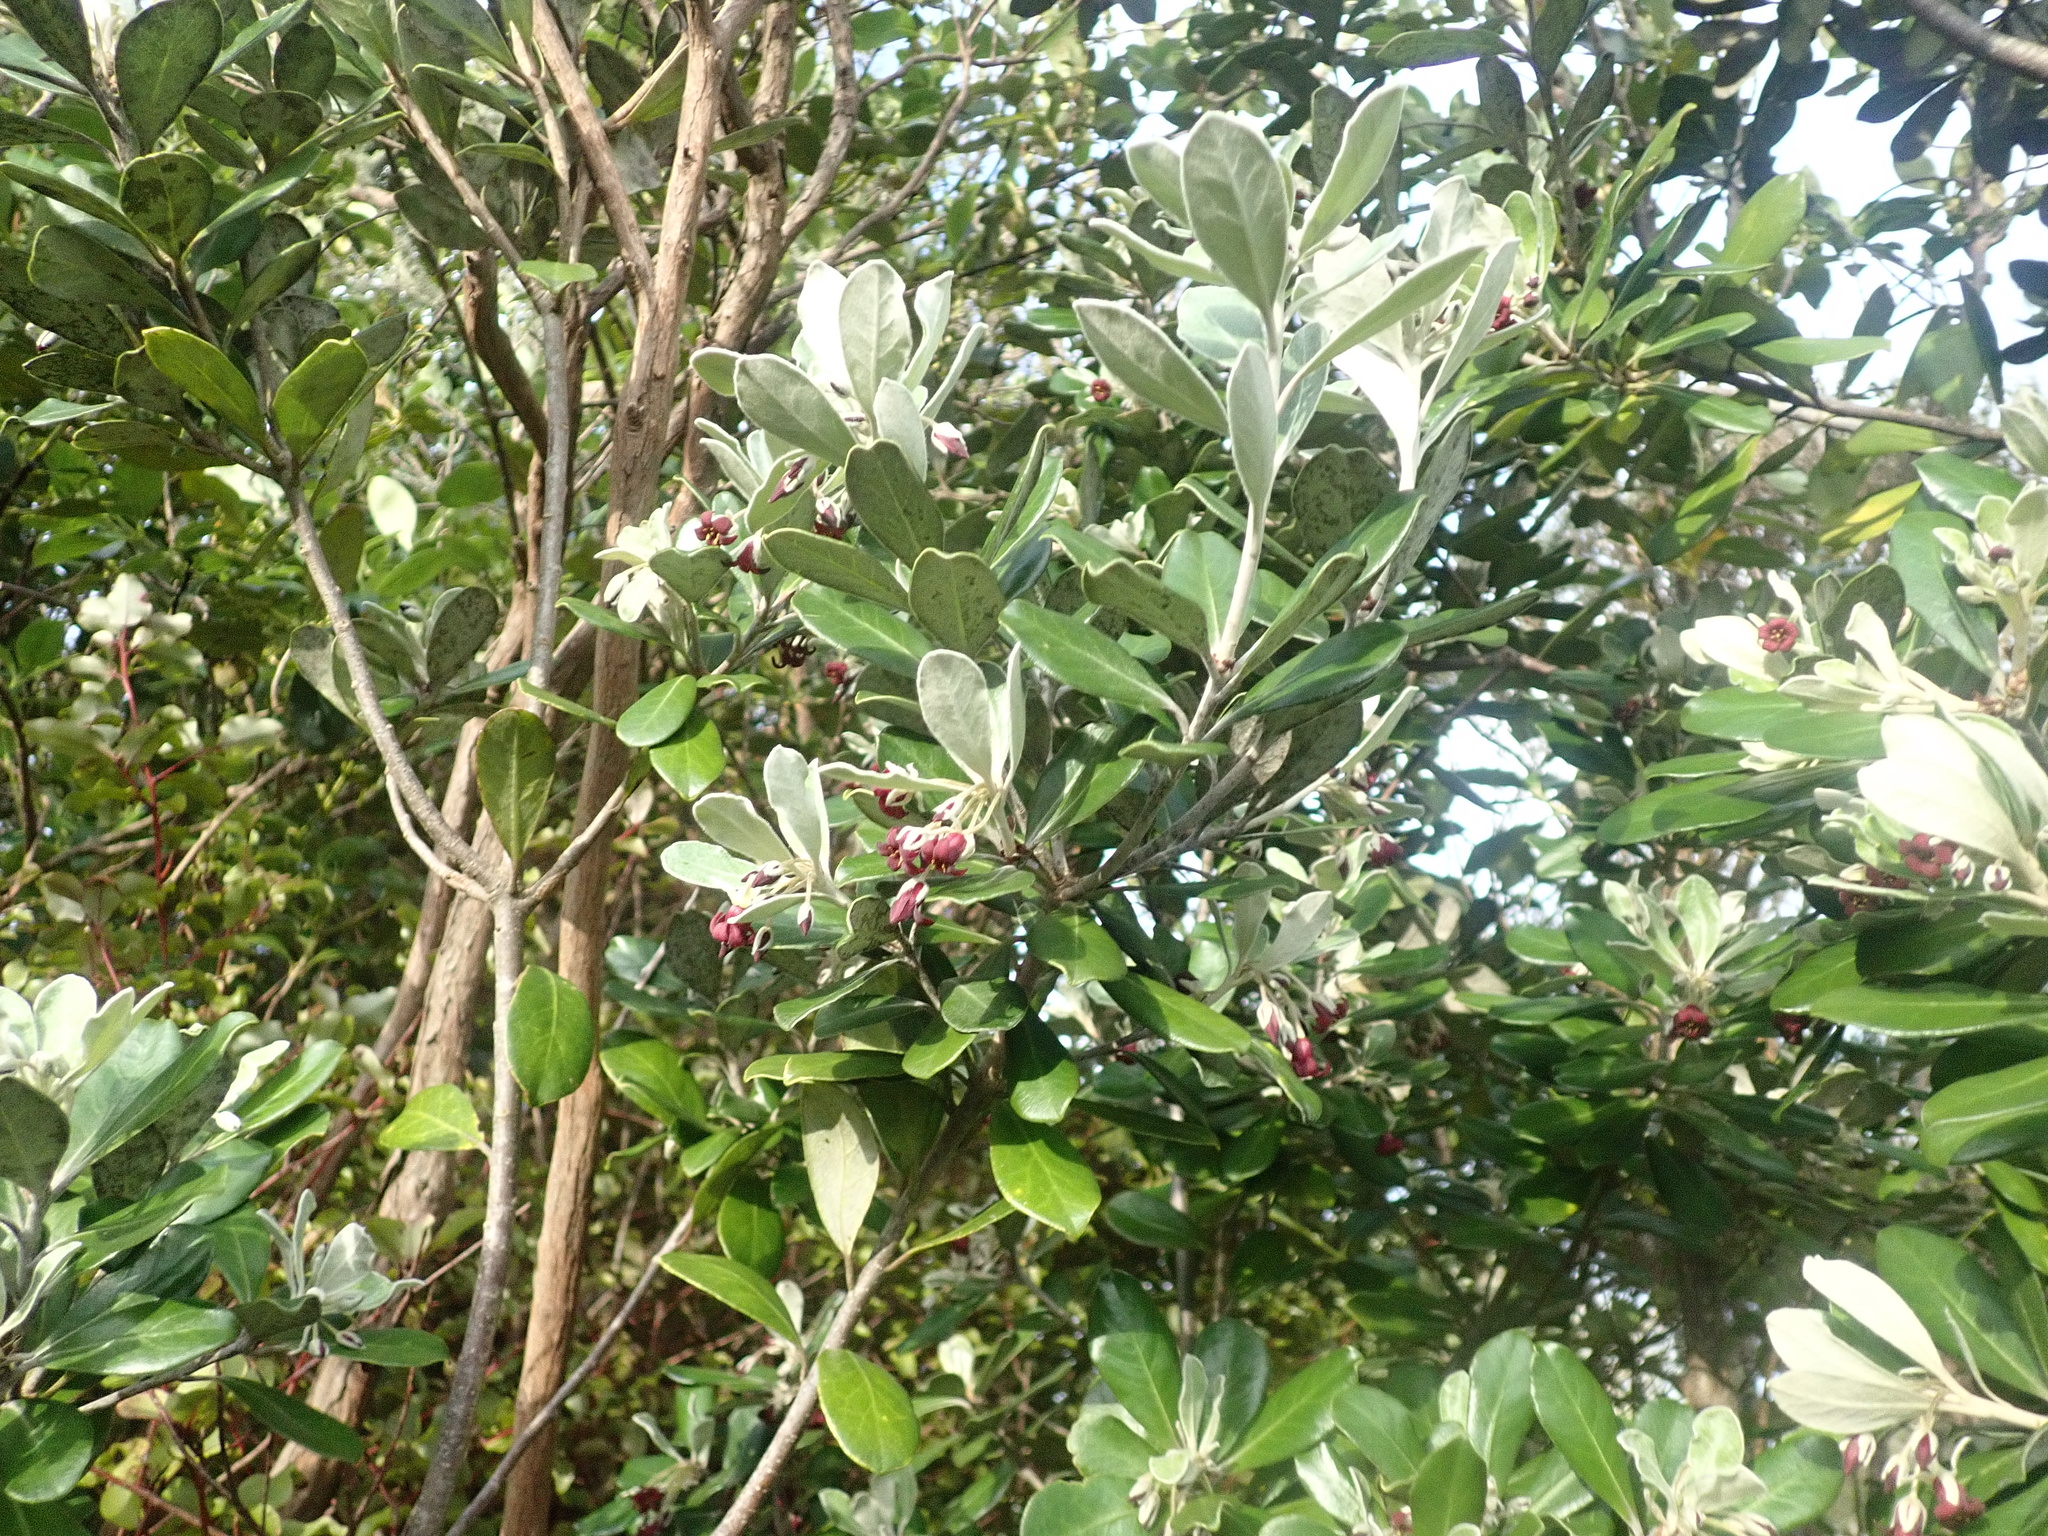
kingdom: Plantae
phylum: Tracheophyta
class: Magnoliopsida
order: Apiales
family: Pittosporaceae
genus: Pittosporum
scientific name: Pittosporum crassifolium
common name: Karo
